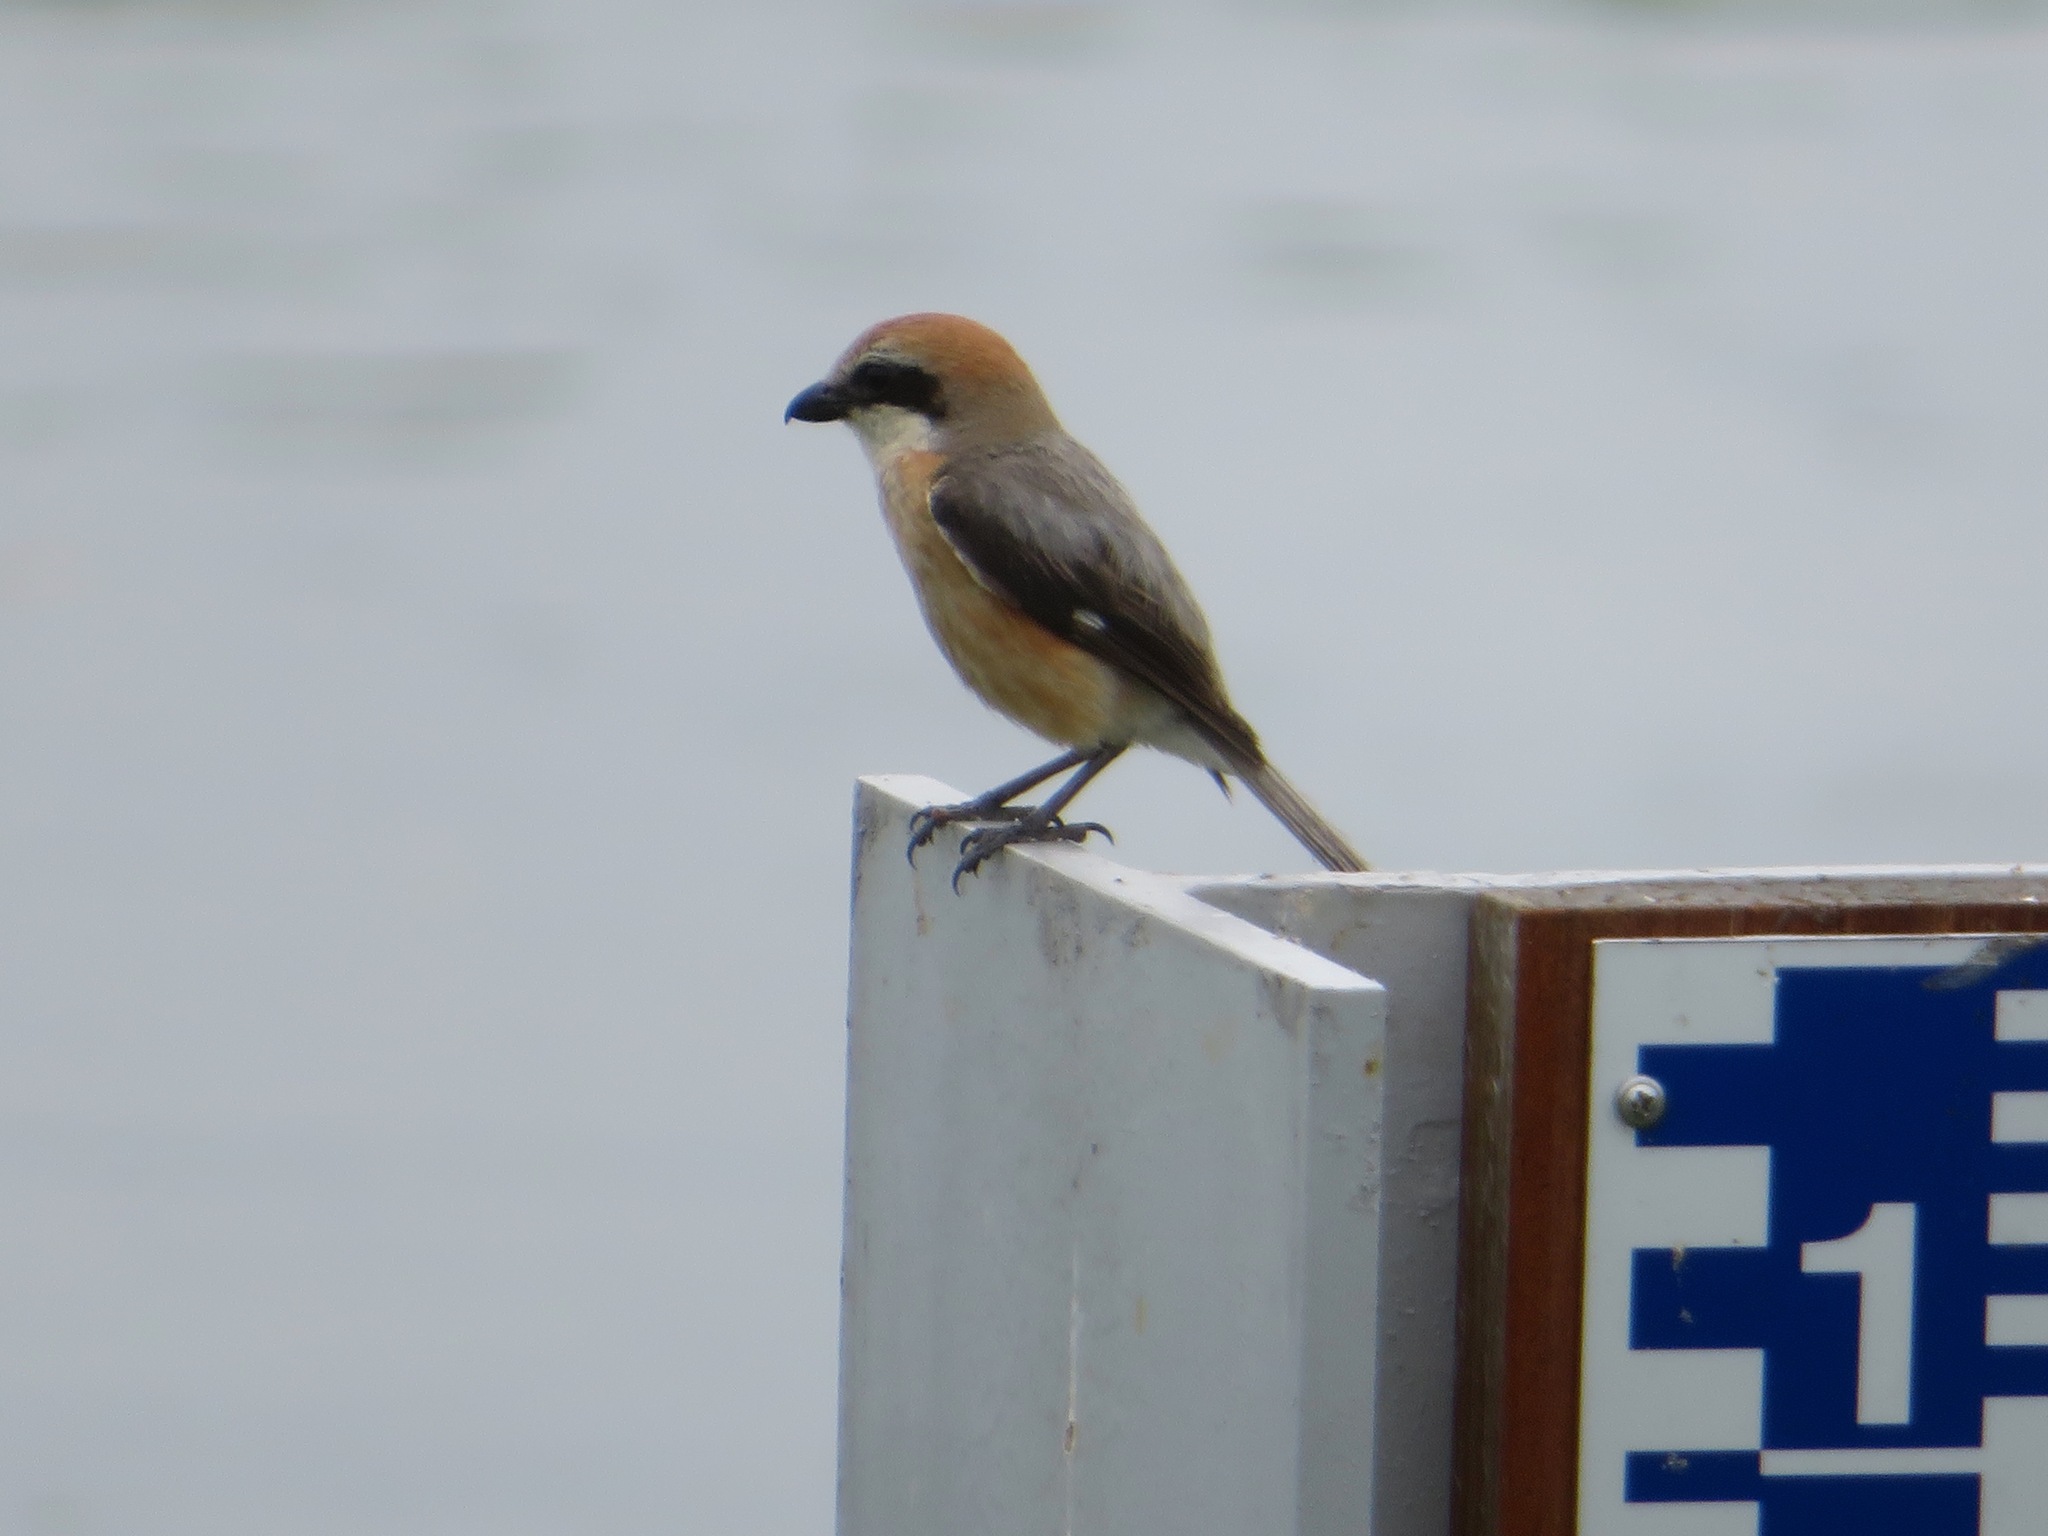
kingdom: Animalia
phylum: Chordata
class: Aves
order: Passeriformes
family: Laniidae
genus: Lanius
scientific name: Lanius bucephalus
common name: Bull-headed shrike
